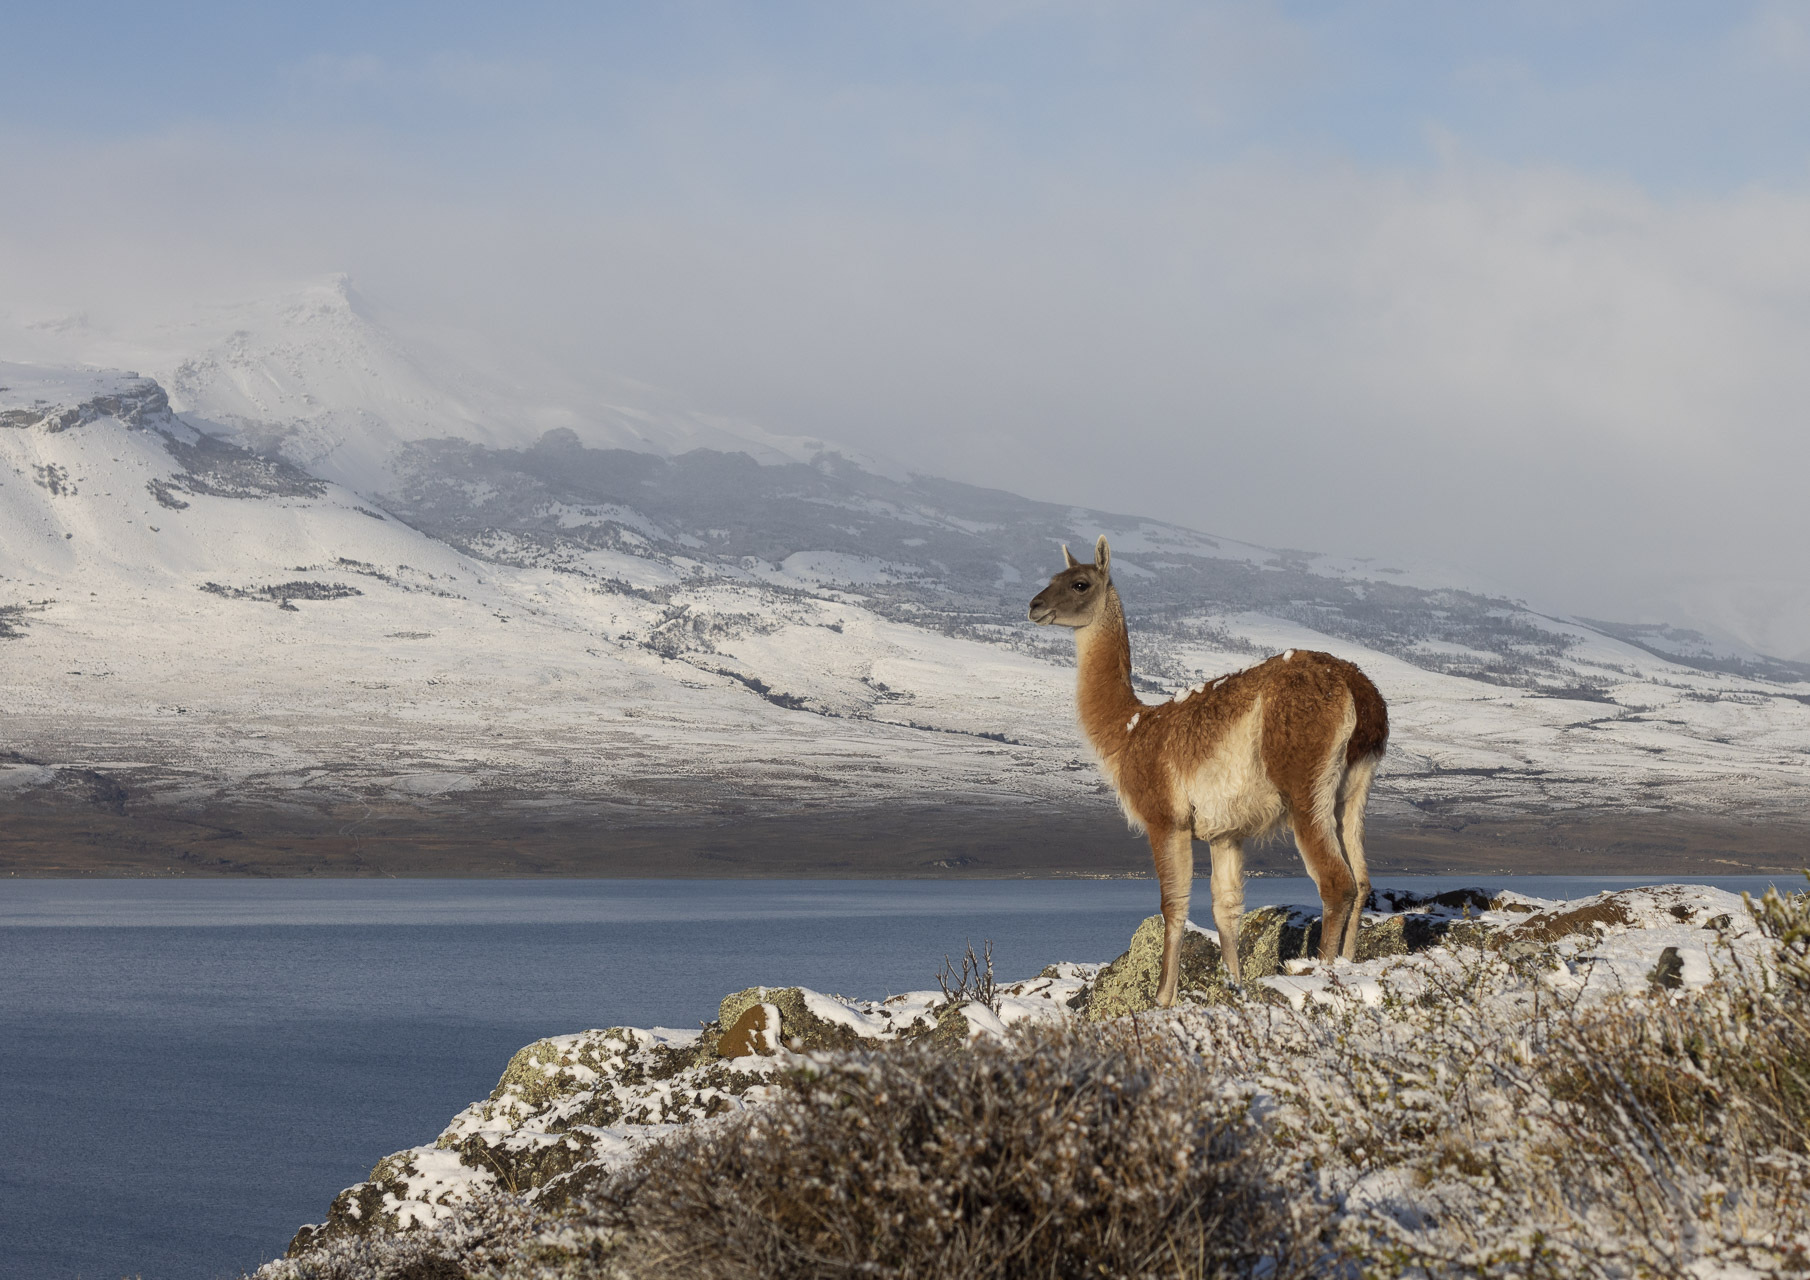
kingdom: Animalia
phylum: Chordata
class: Mammalia
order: Artiodactyla
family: Camelidae
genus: Lama
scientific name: Lama glama
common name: Llama
